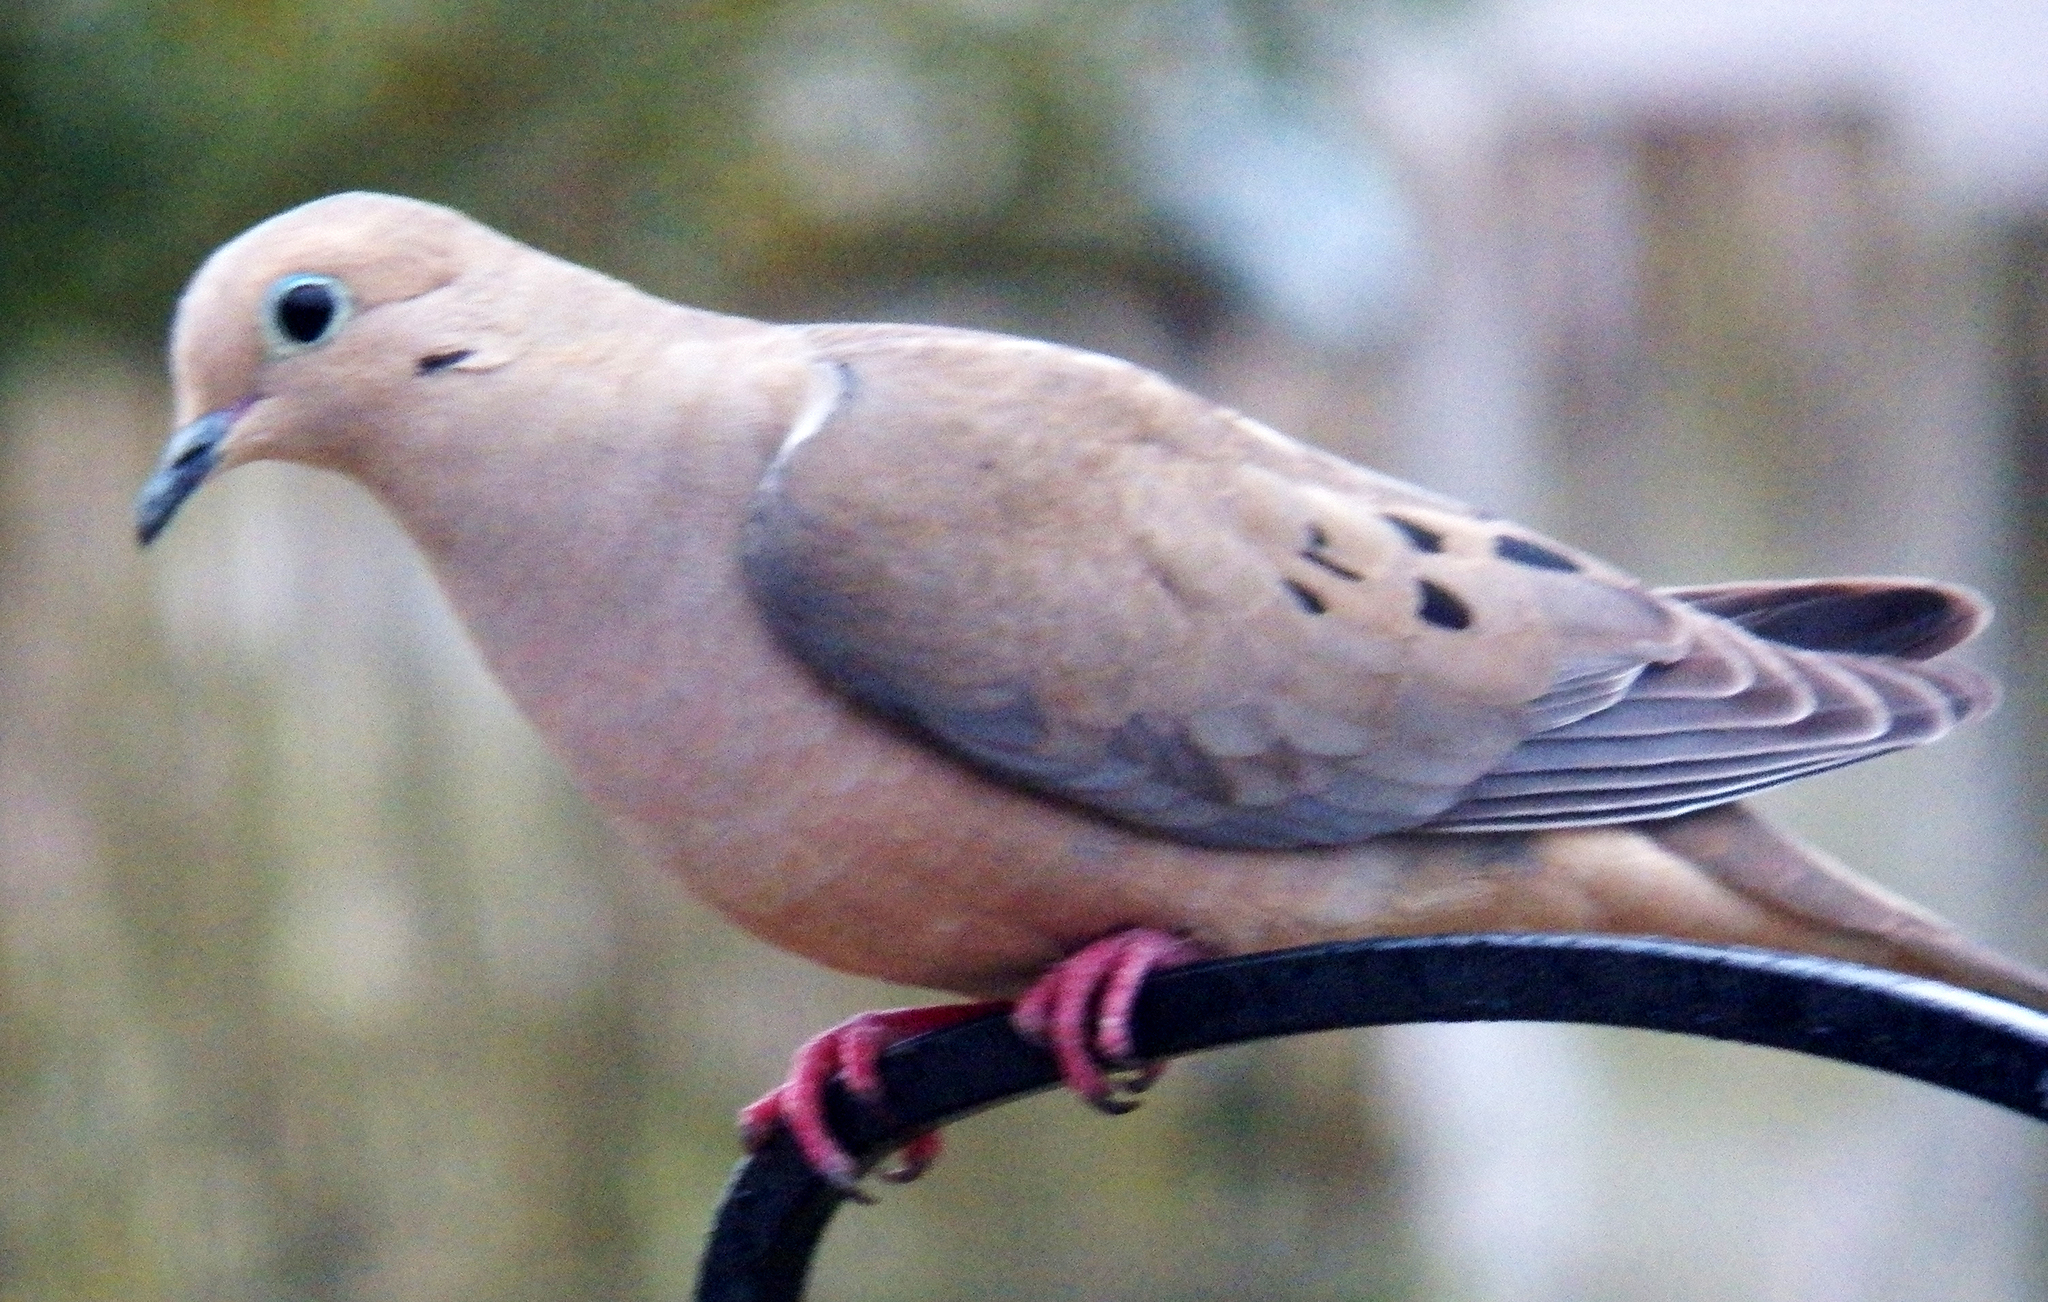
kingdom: Animalia
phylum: Chordata
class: Aves
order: Columbiformes
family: Columbidae
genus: Zenaida
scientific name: Zenaida macroura
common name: Mourning dove
